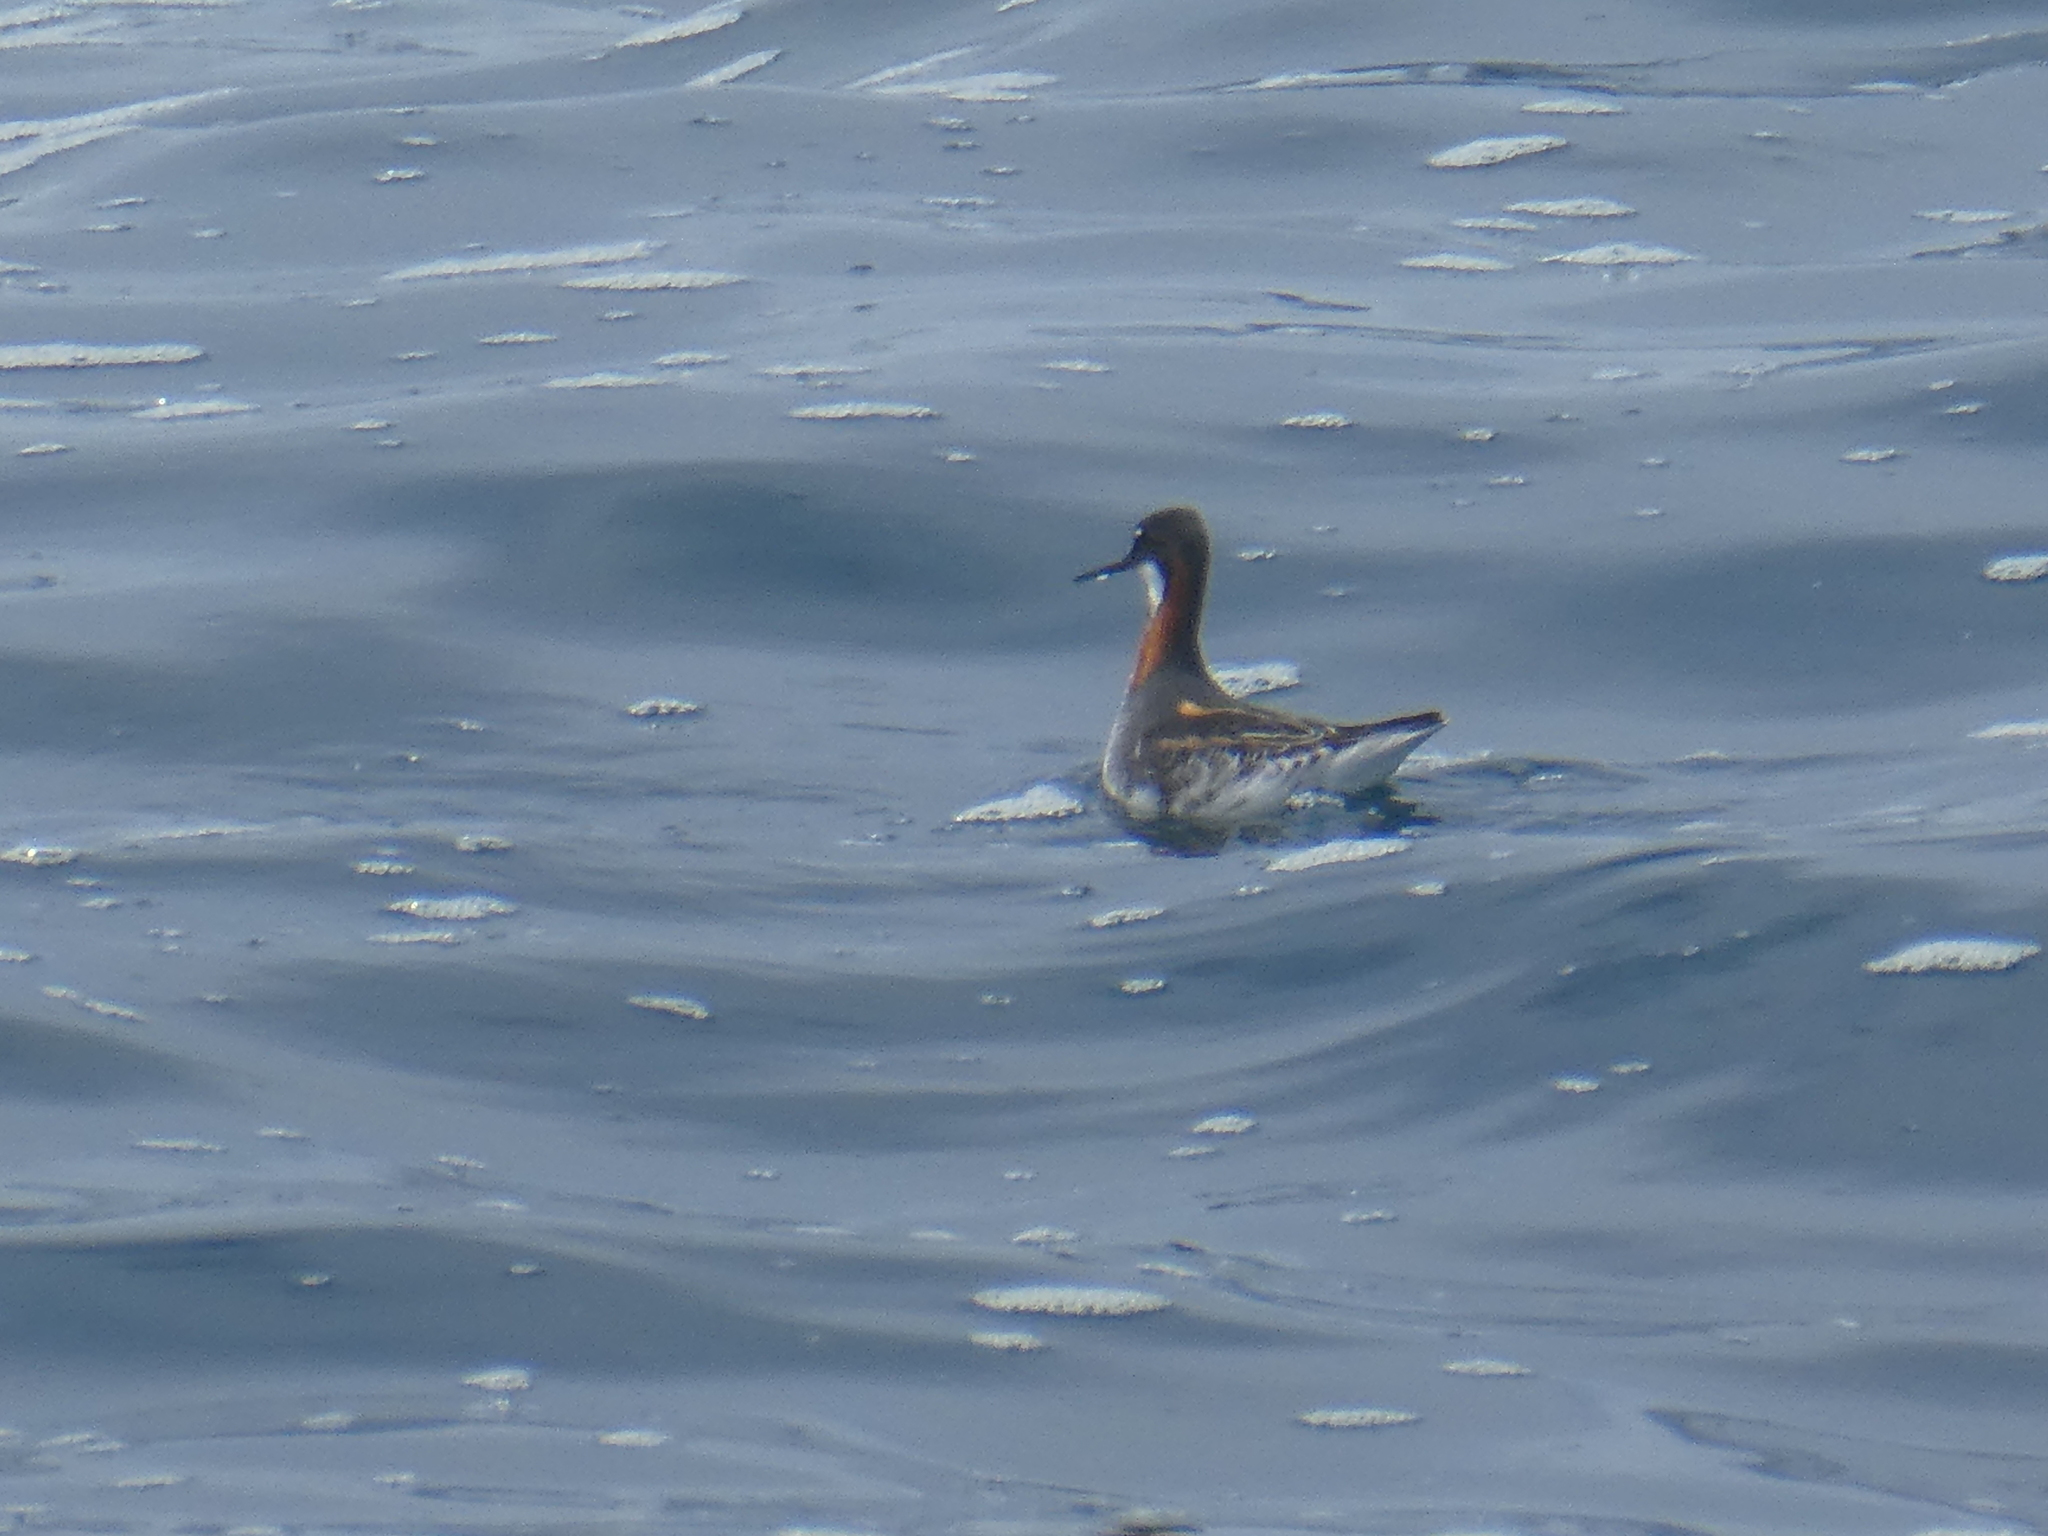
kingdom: Animalia
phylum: Chordata
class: Aves
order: Charadriiformes
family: Scolopacidae
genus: Phalaropus
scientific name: Phalaropus lobatus
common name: Red-necked phalarope
